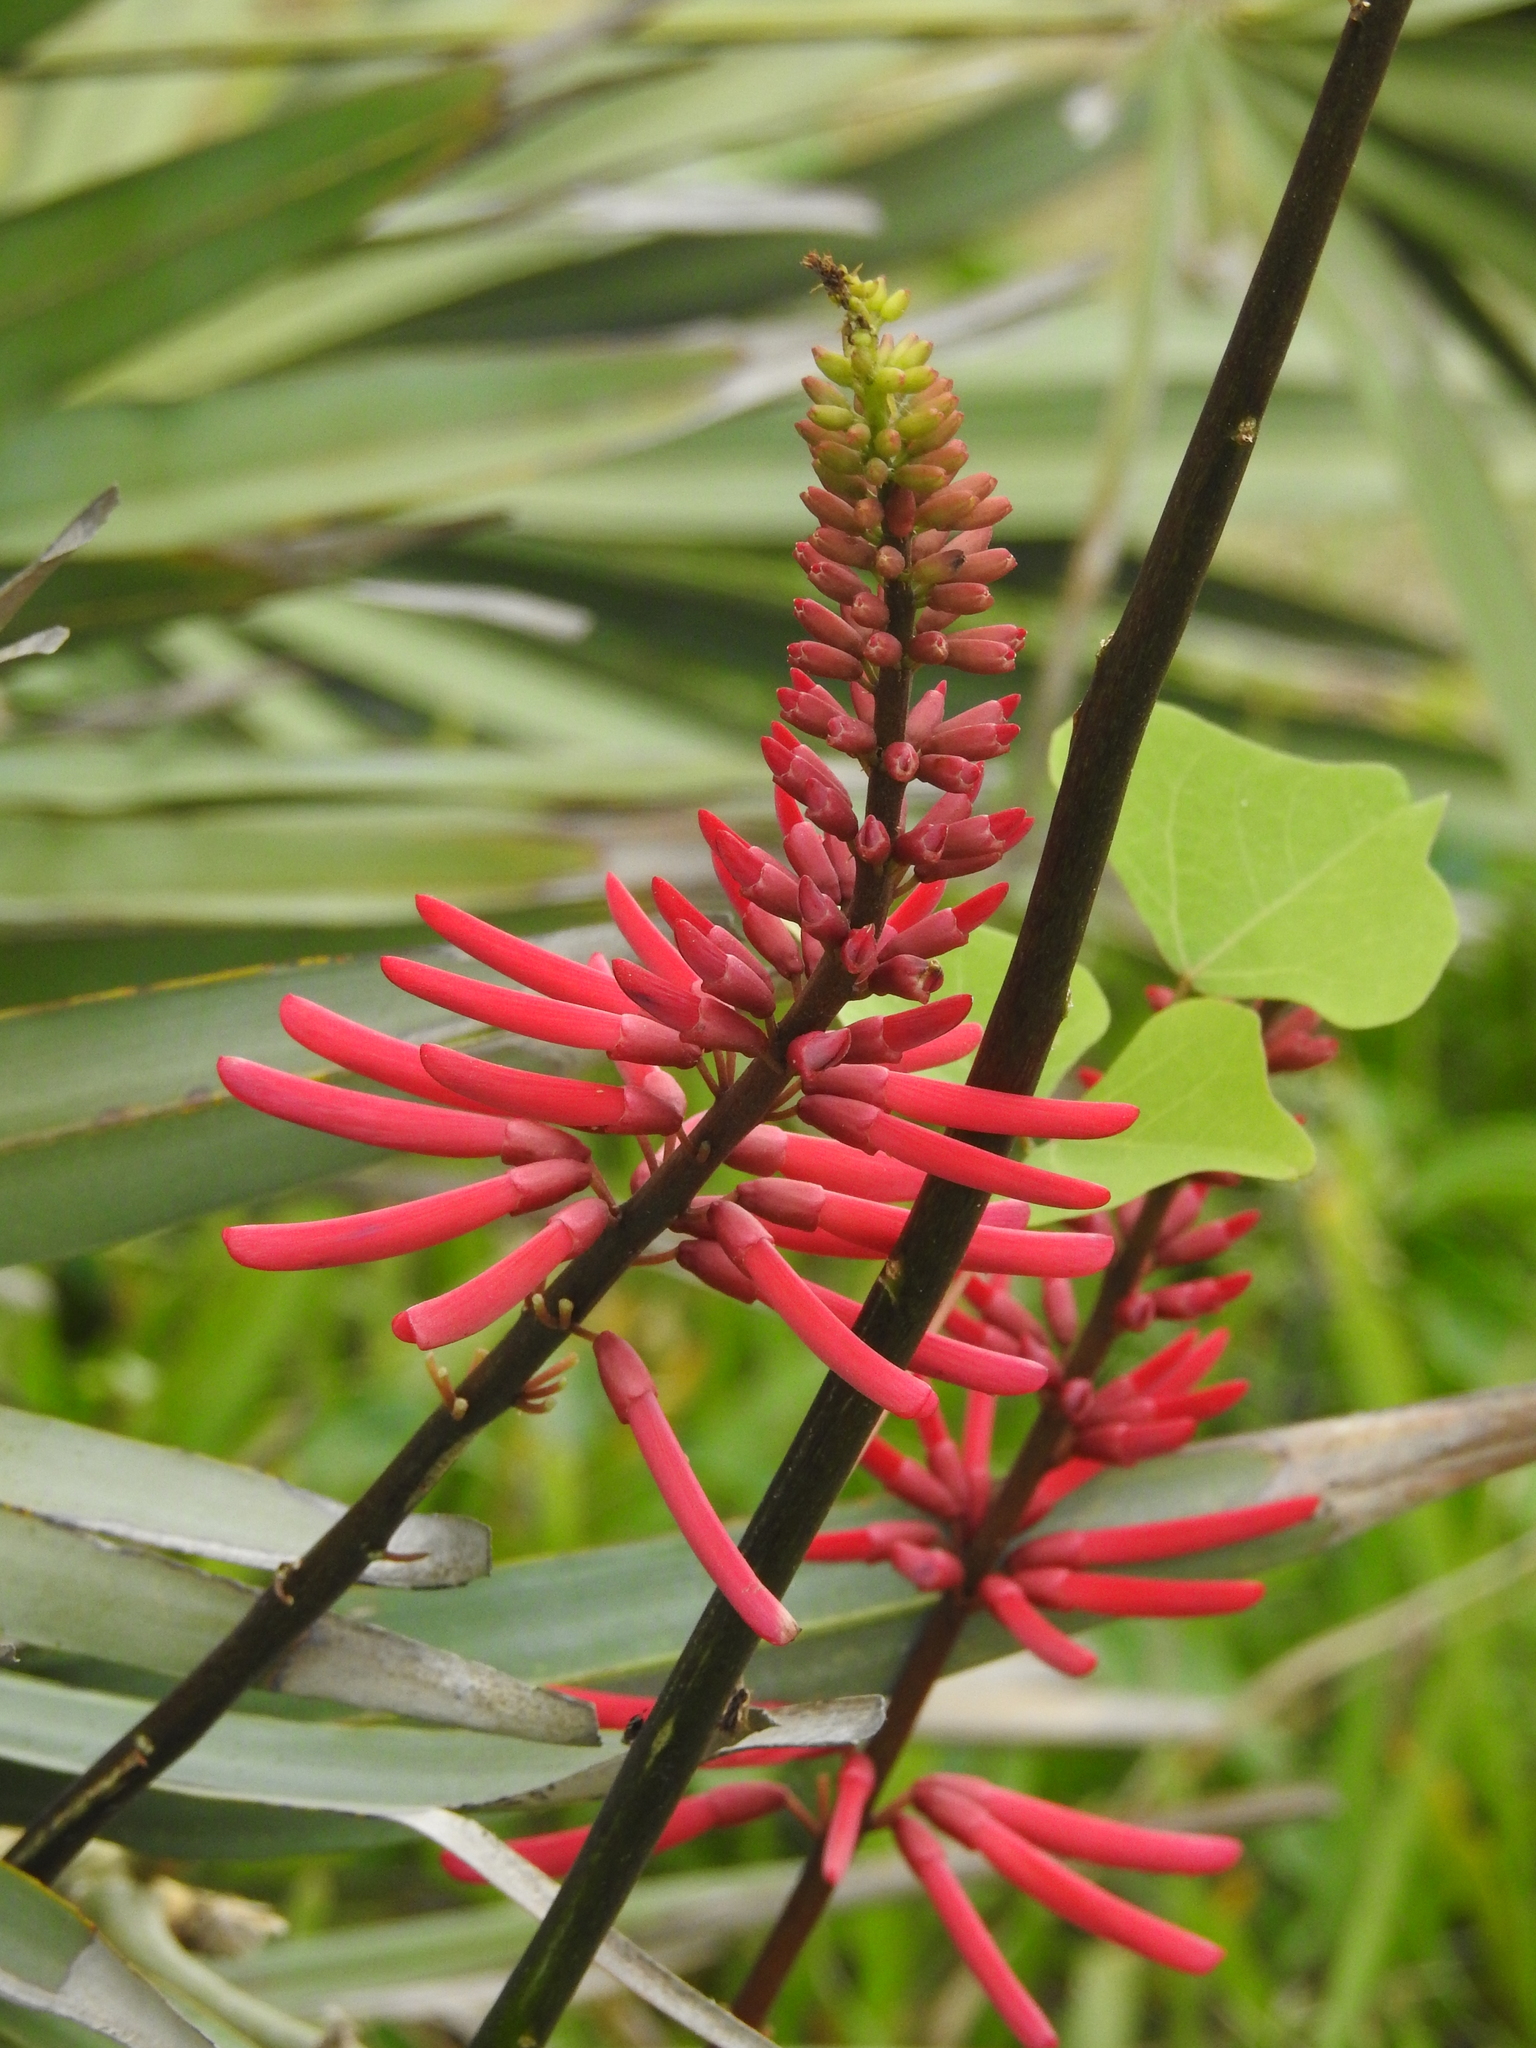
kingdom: Plantae
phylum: Tracheophyta
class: Magnoliopsida
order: Fabales
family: Fabaceae
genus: Erythrina
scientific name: Erythrina herbacea
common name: Coral-bean
